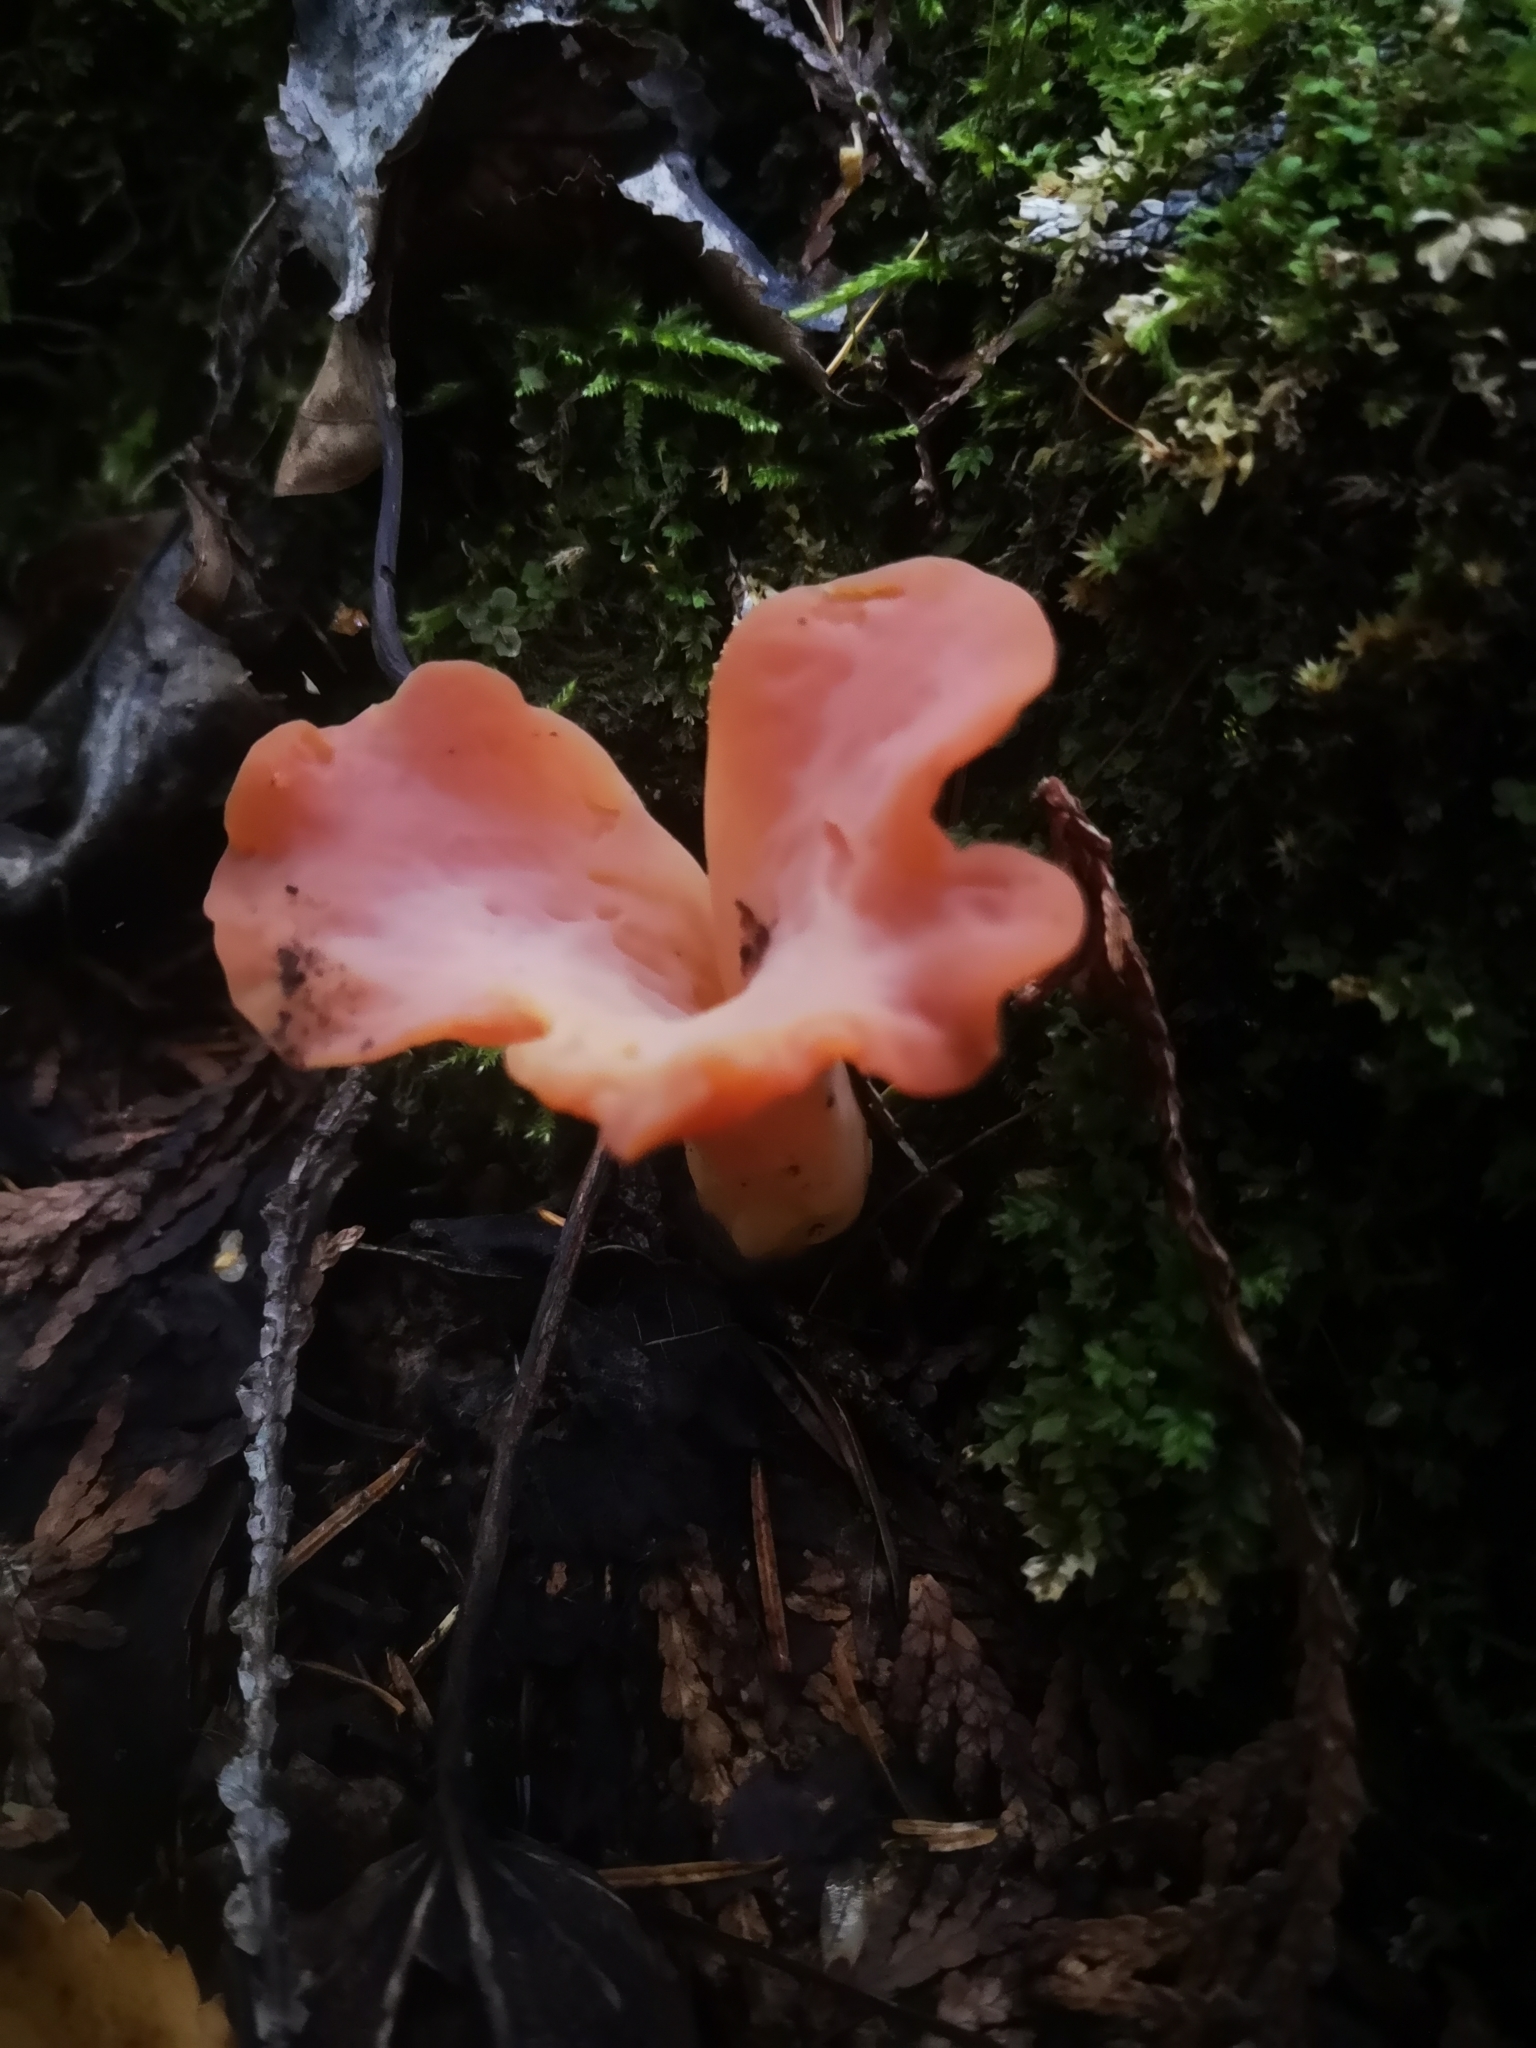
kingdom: Fungi
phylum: Basidiomycota
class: Agaricomycetes
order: Auriculariales
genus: Guepinia
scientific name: Guepinia helvelloides
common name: Salmon salad
